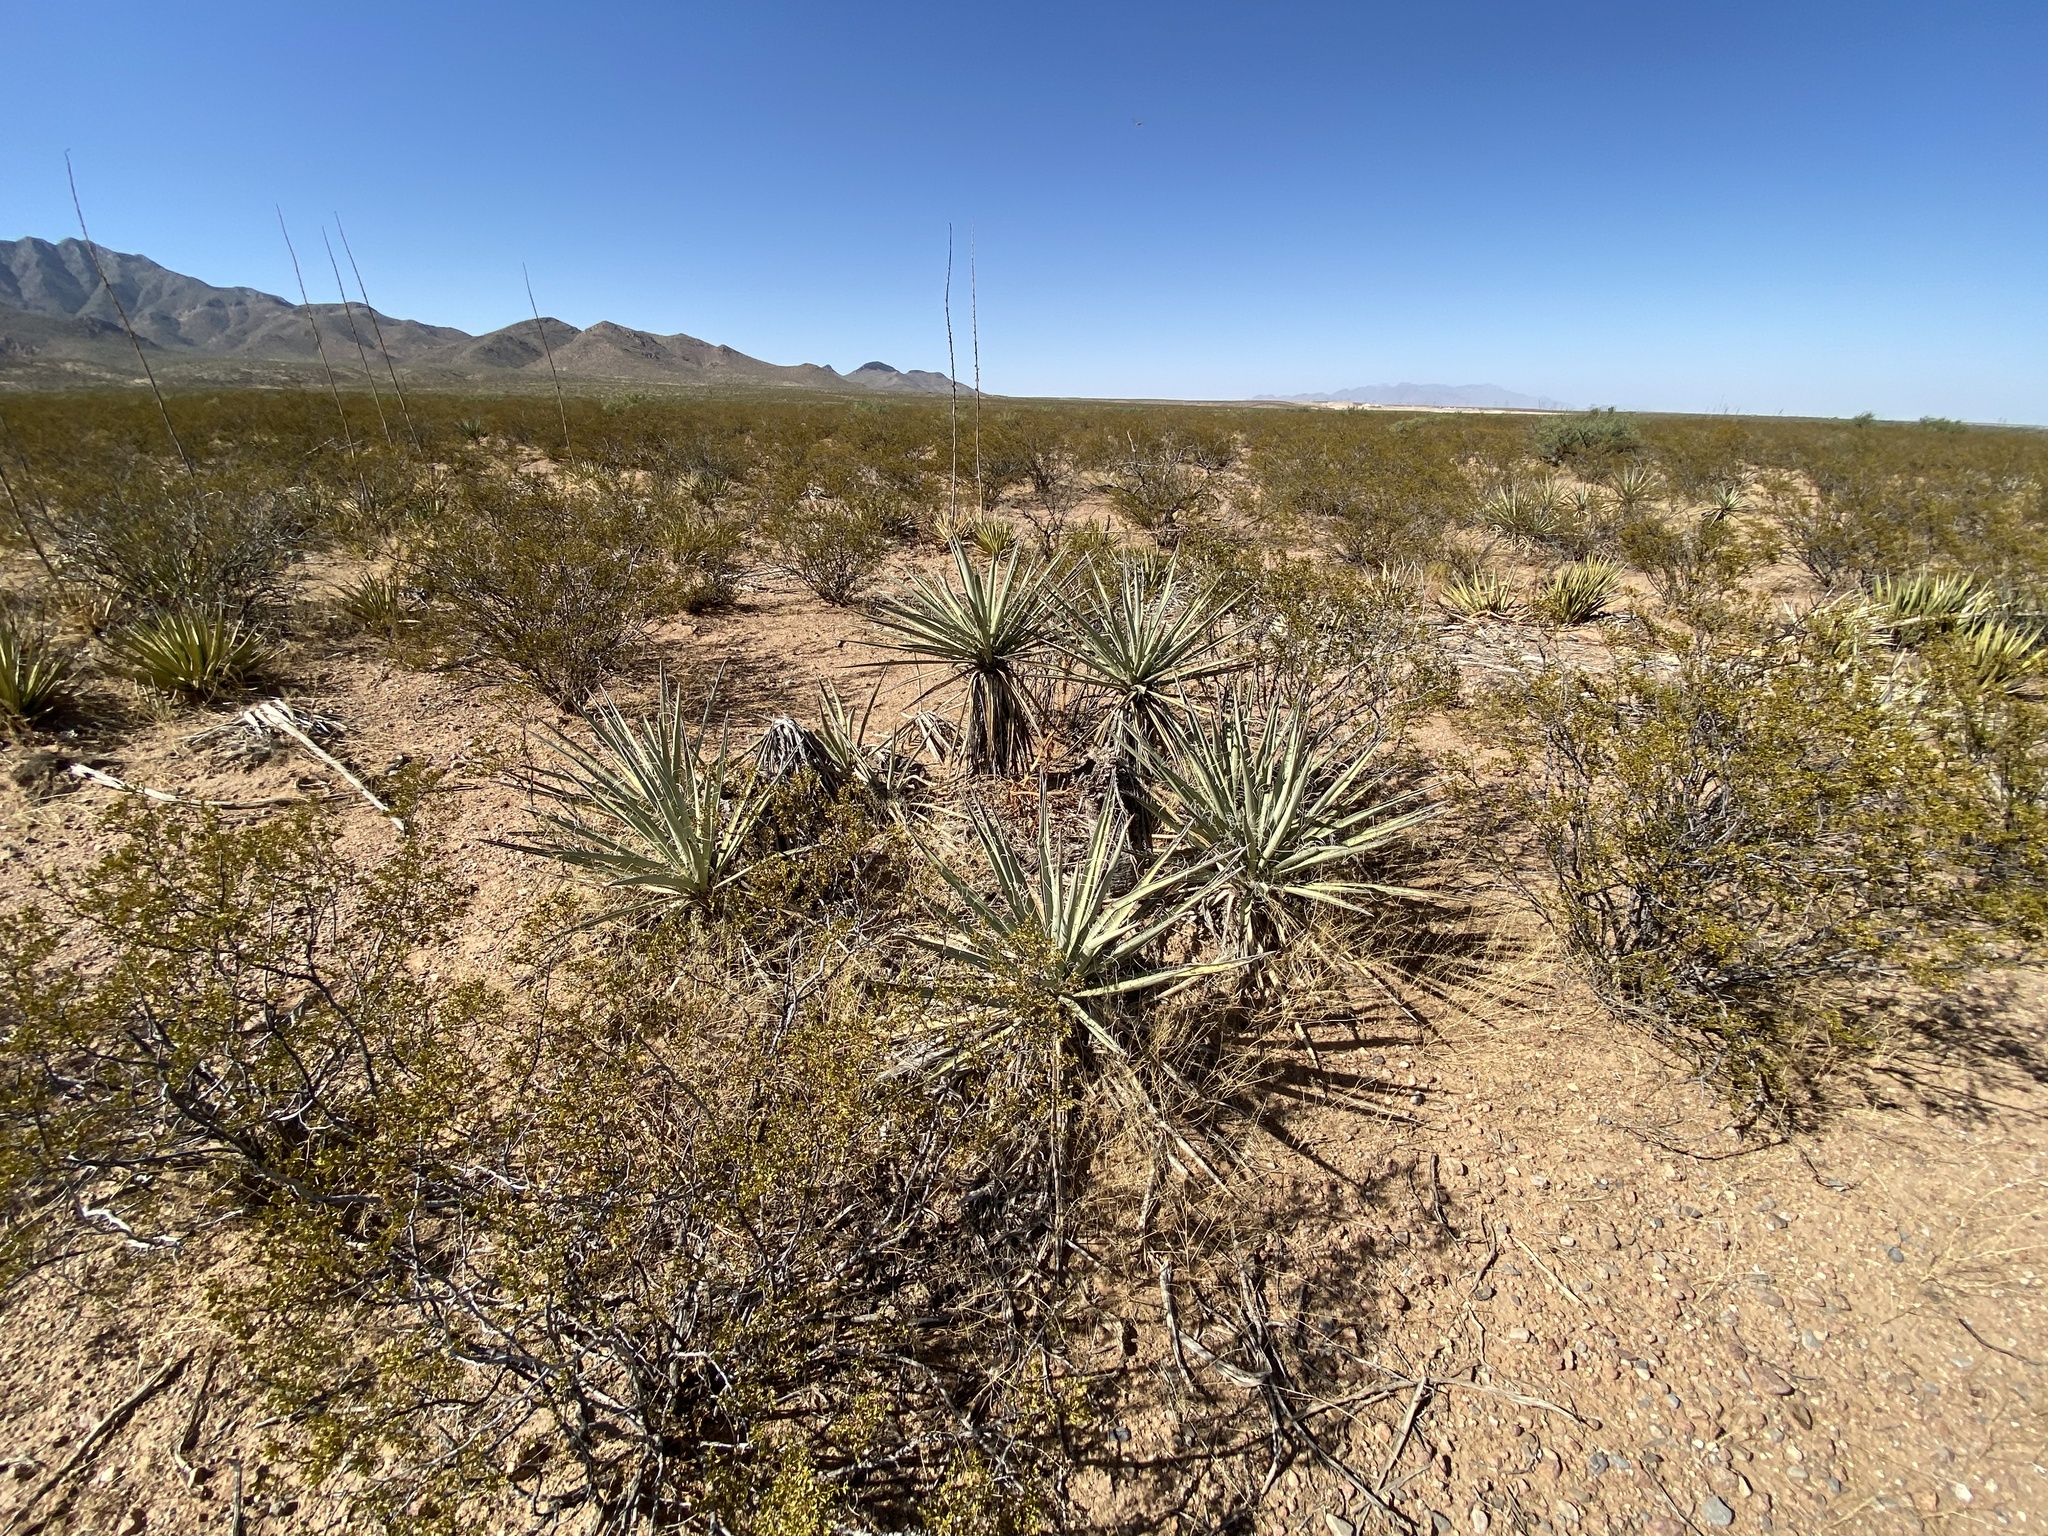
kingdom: Plantae
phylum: Tracheophyta
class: Liliopsida
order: Asparagales
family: Asparagaceae
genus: Yucca
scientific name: Yucca baccata
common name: Banana yucca
